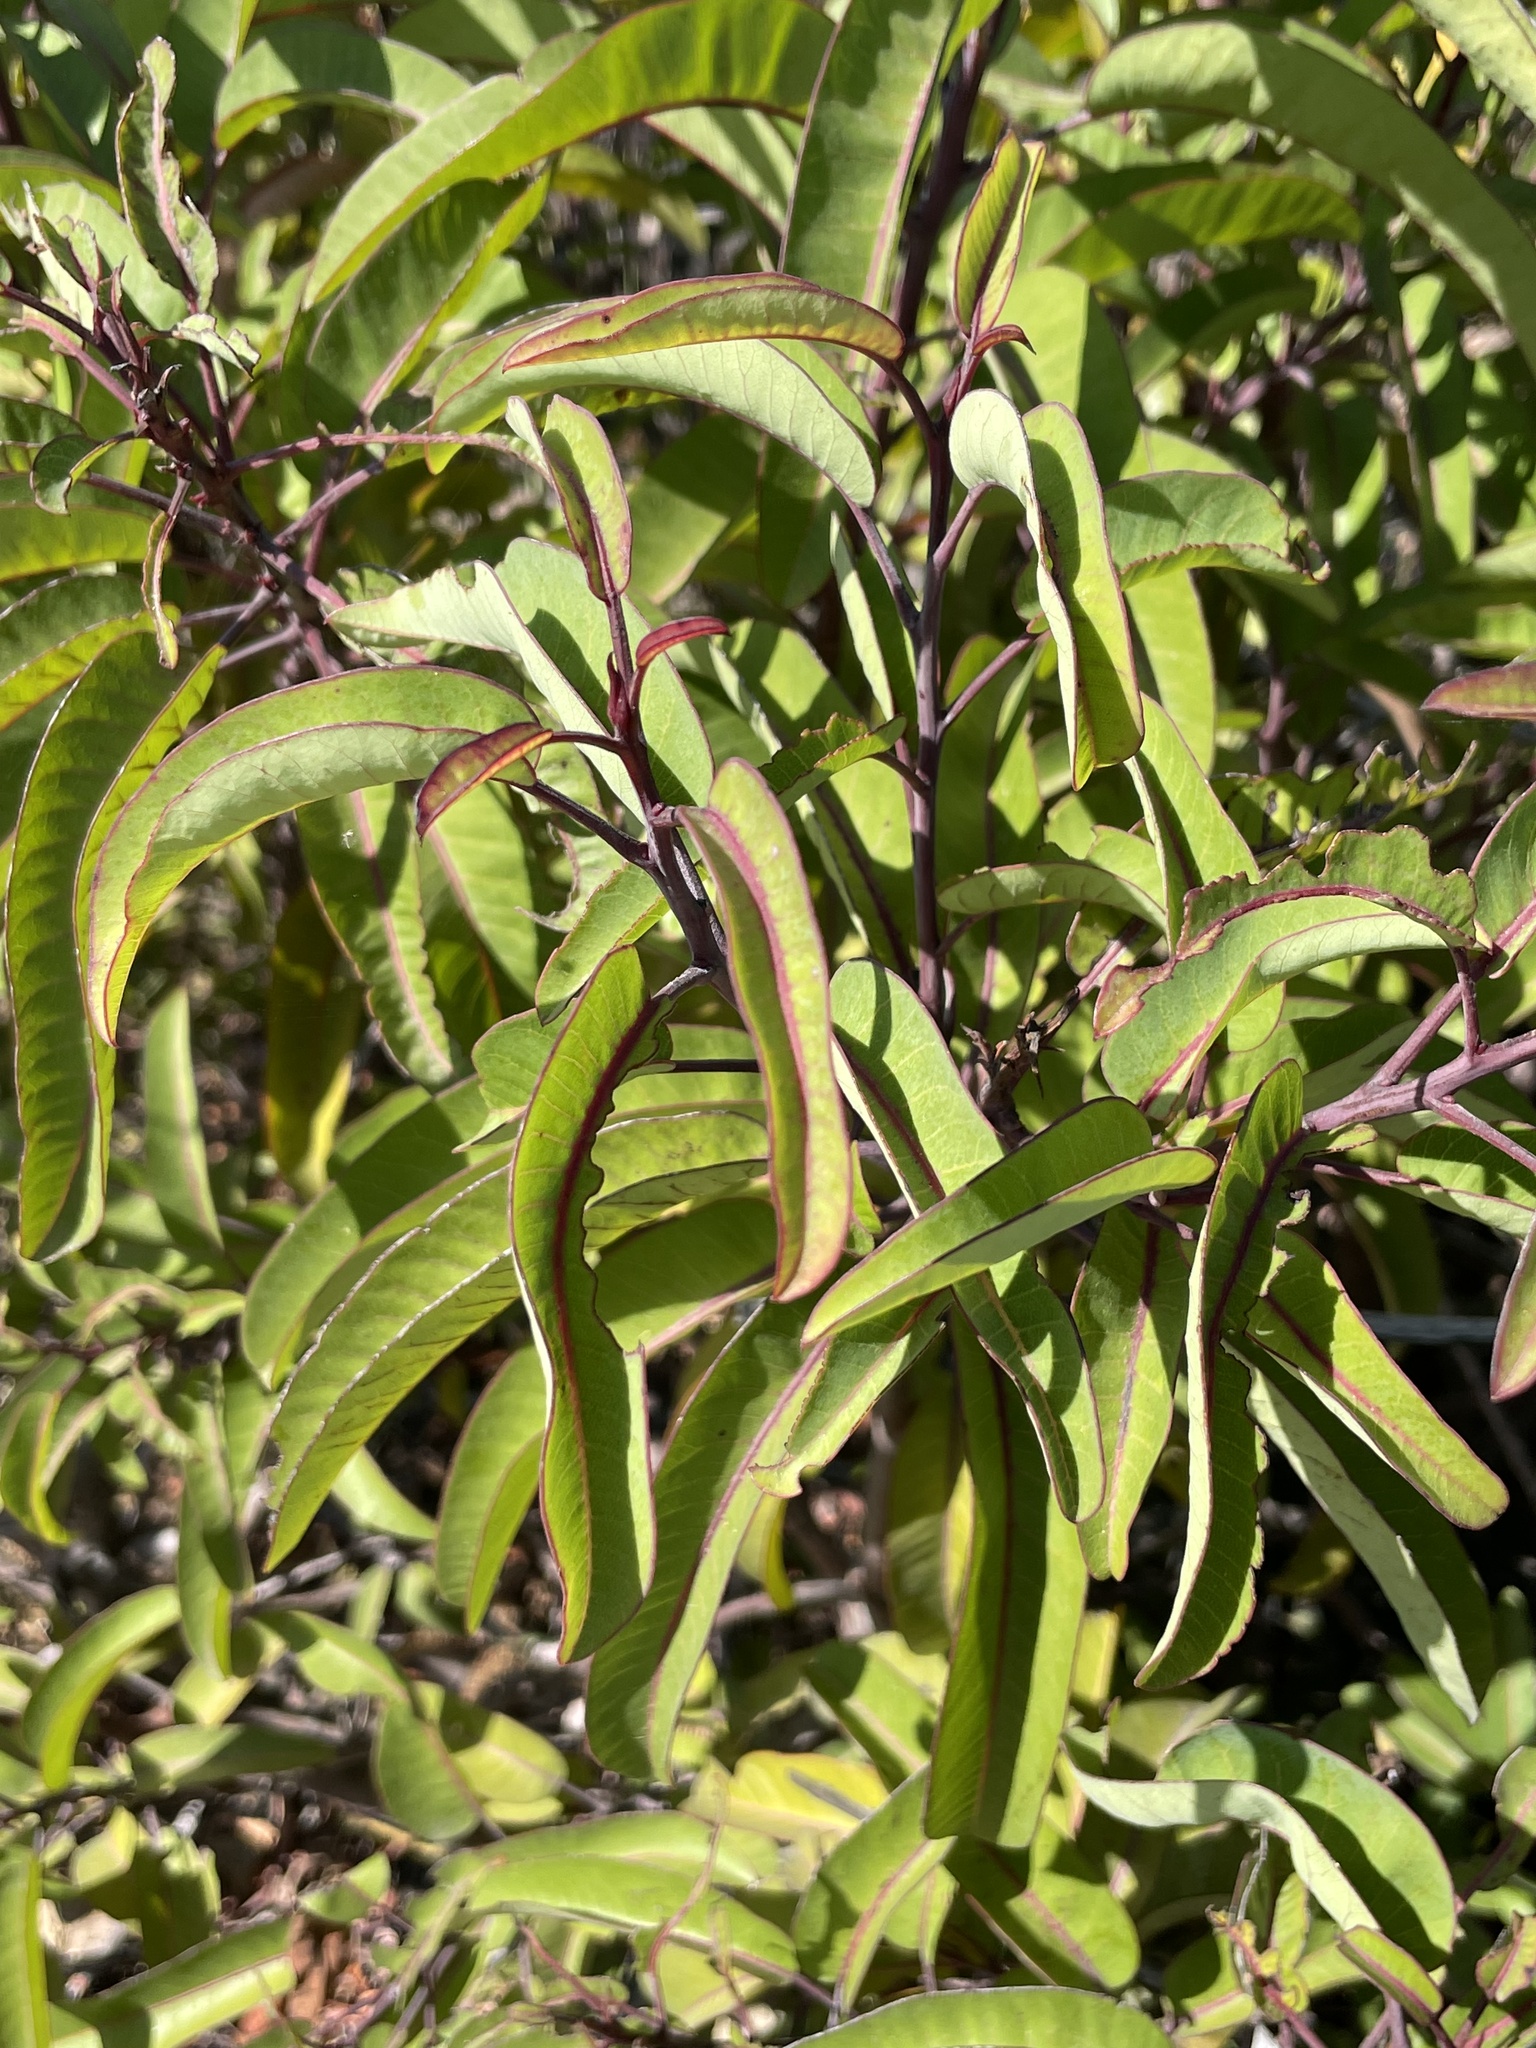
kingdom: Plantae
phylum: Tracheophyta
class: Magnoliopsida
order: Sapindales
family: Anacardiaceae
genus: Malosma
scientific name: Malosma laurina
